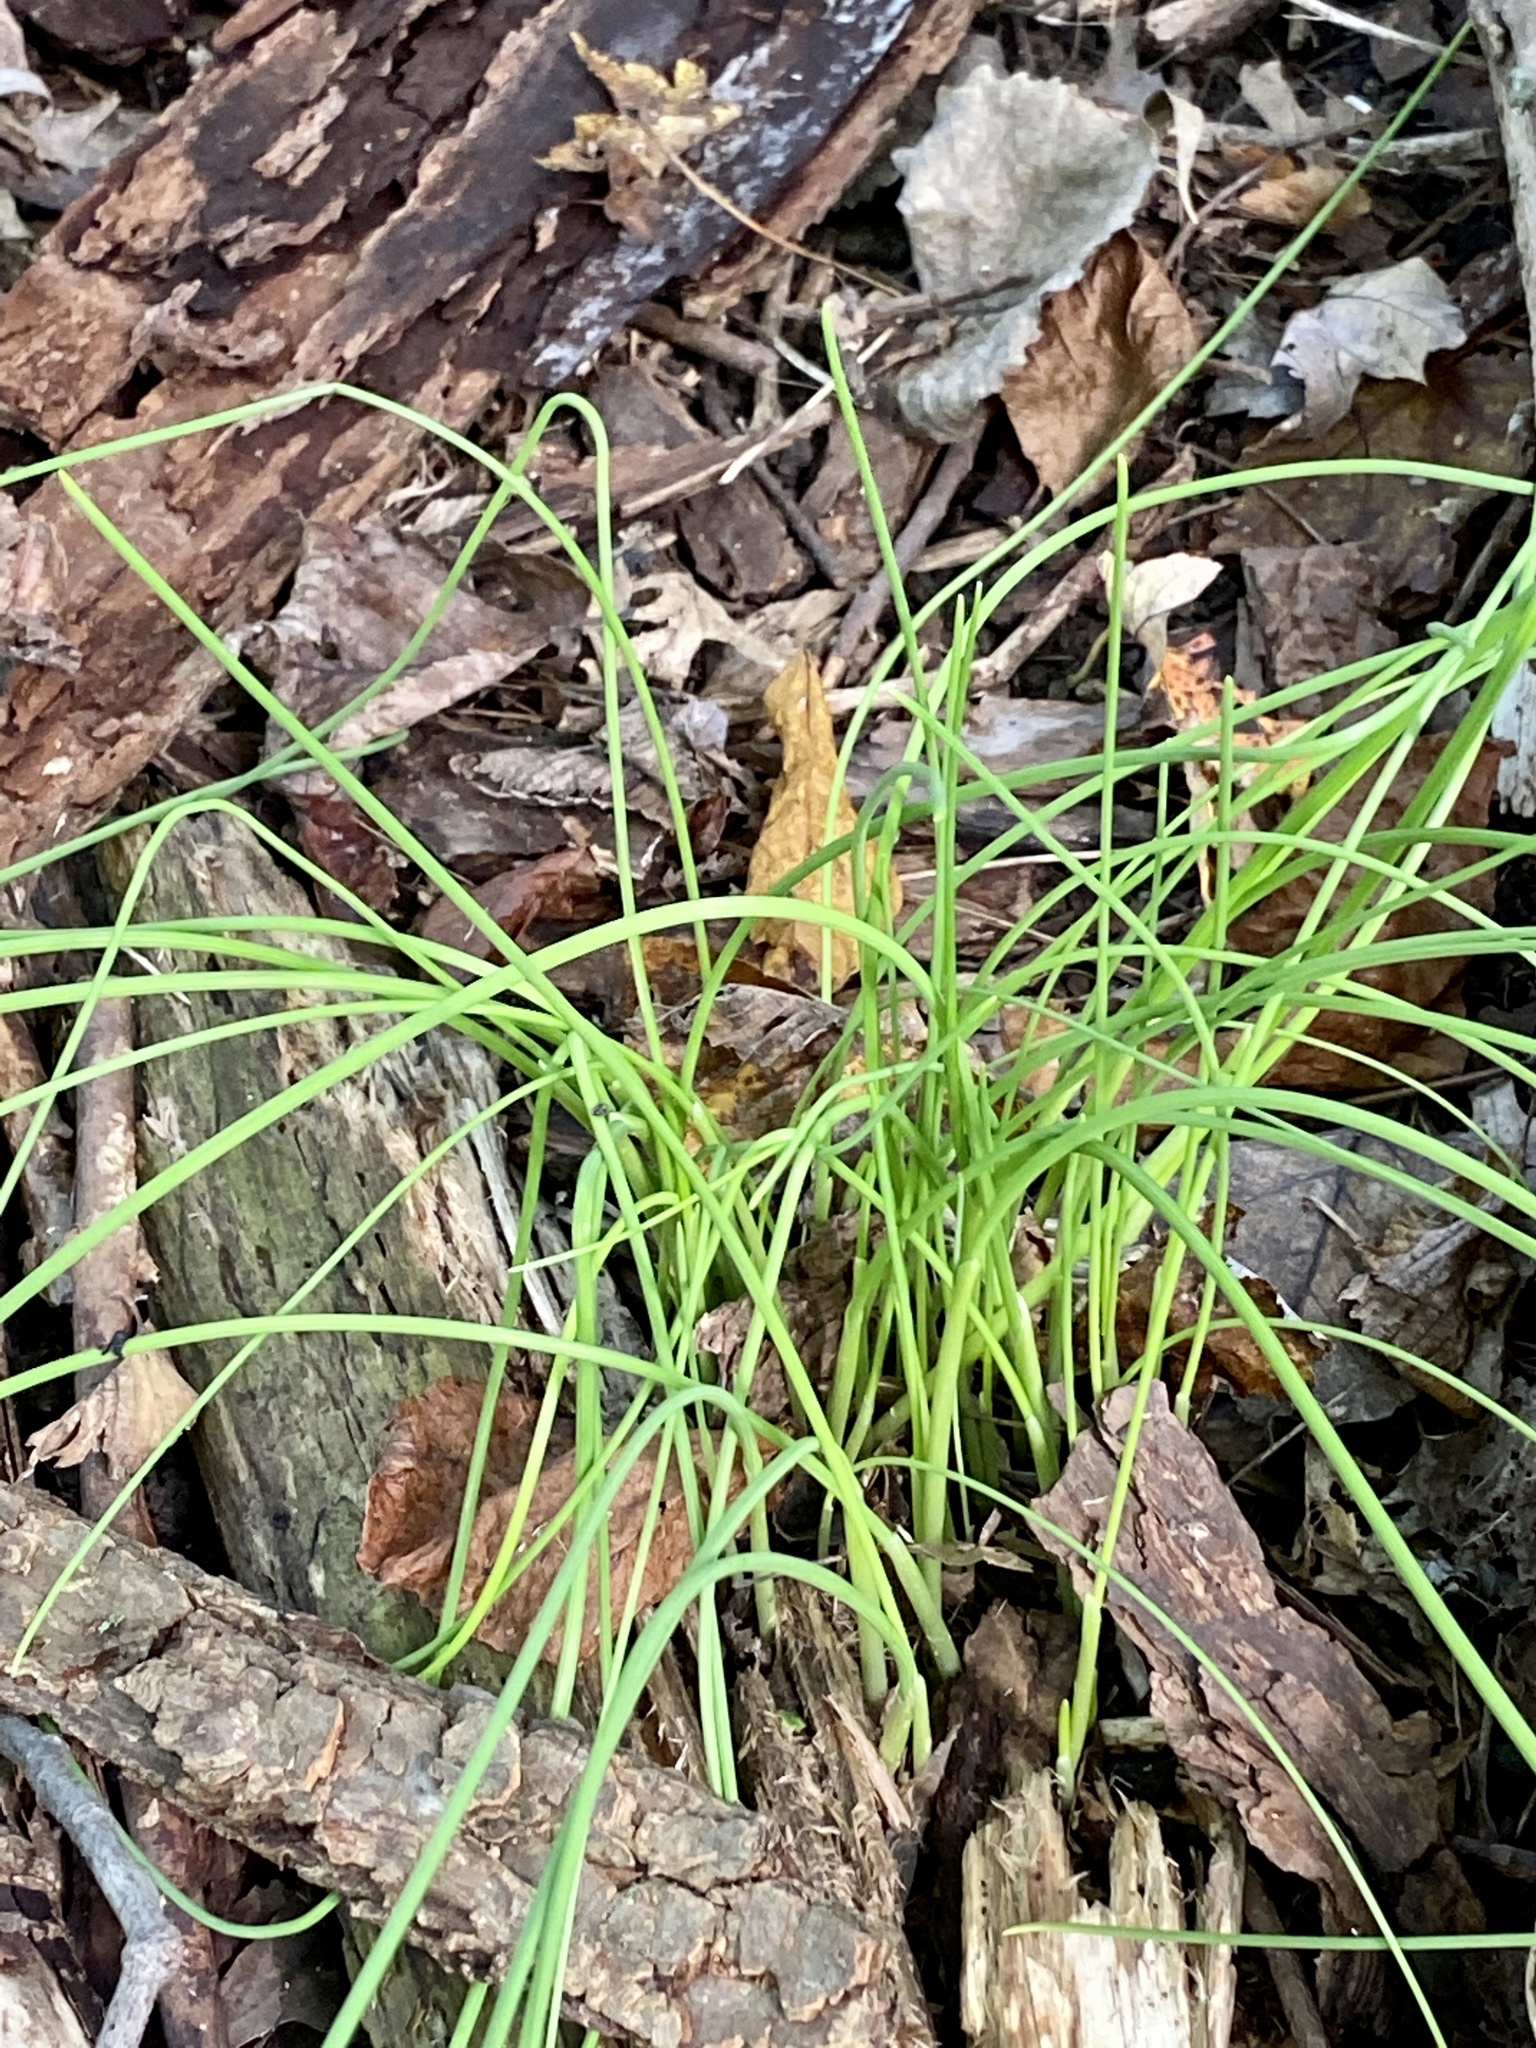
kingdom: Plantae
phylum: Tracheophyta
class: Liliopsida
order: Asparagales
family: Amaryllidaceae
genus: Allium
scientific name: Allium vineale
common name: Crow garlic
